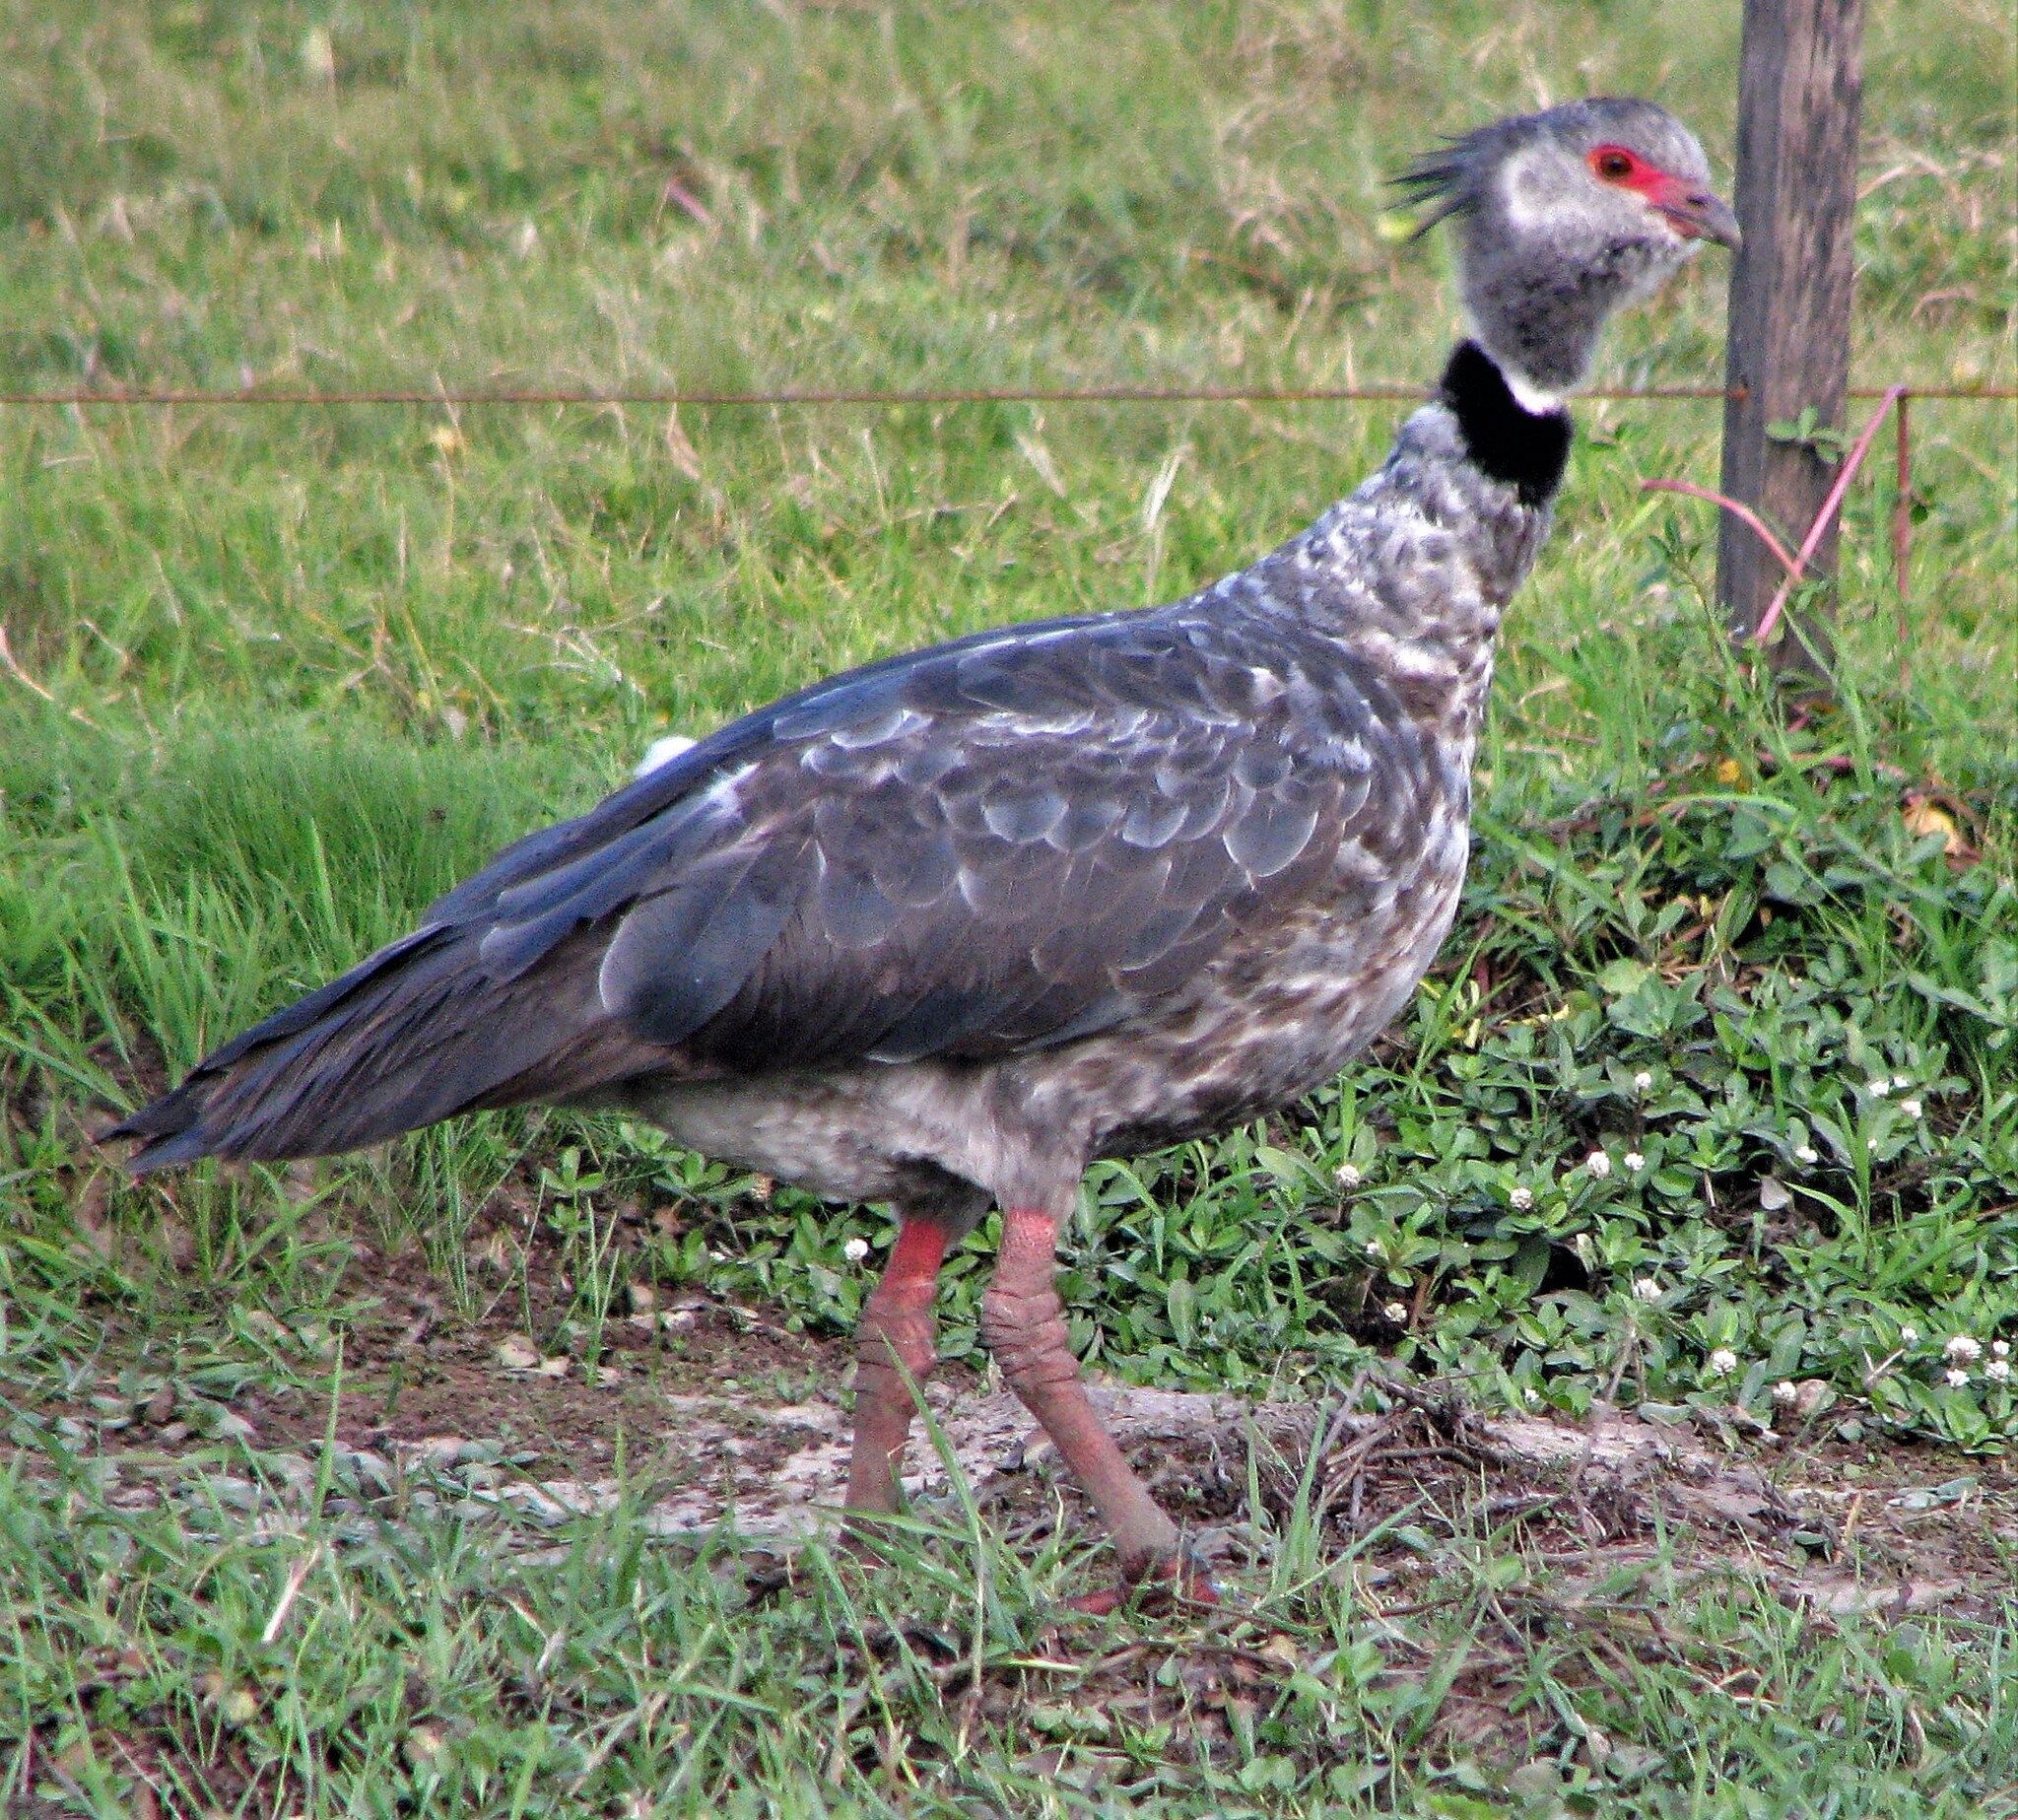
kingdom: Animalia
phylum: Chordata
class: Aves
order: Anseriformes
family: Anhimidae
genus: Chauna
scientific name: Chauna torquata
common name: Southern screamer
